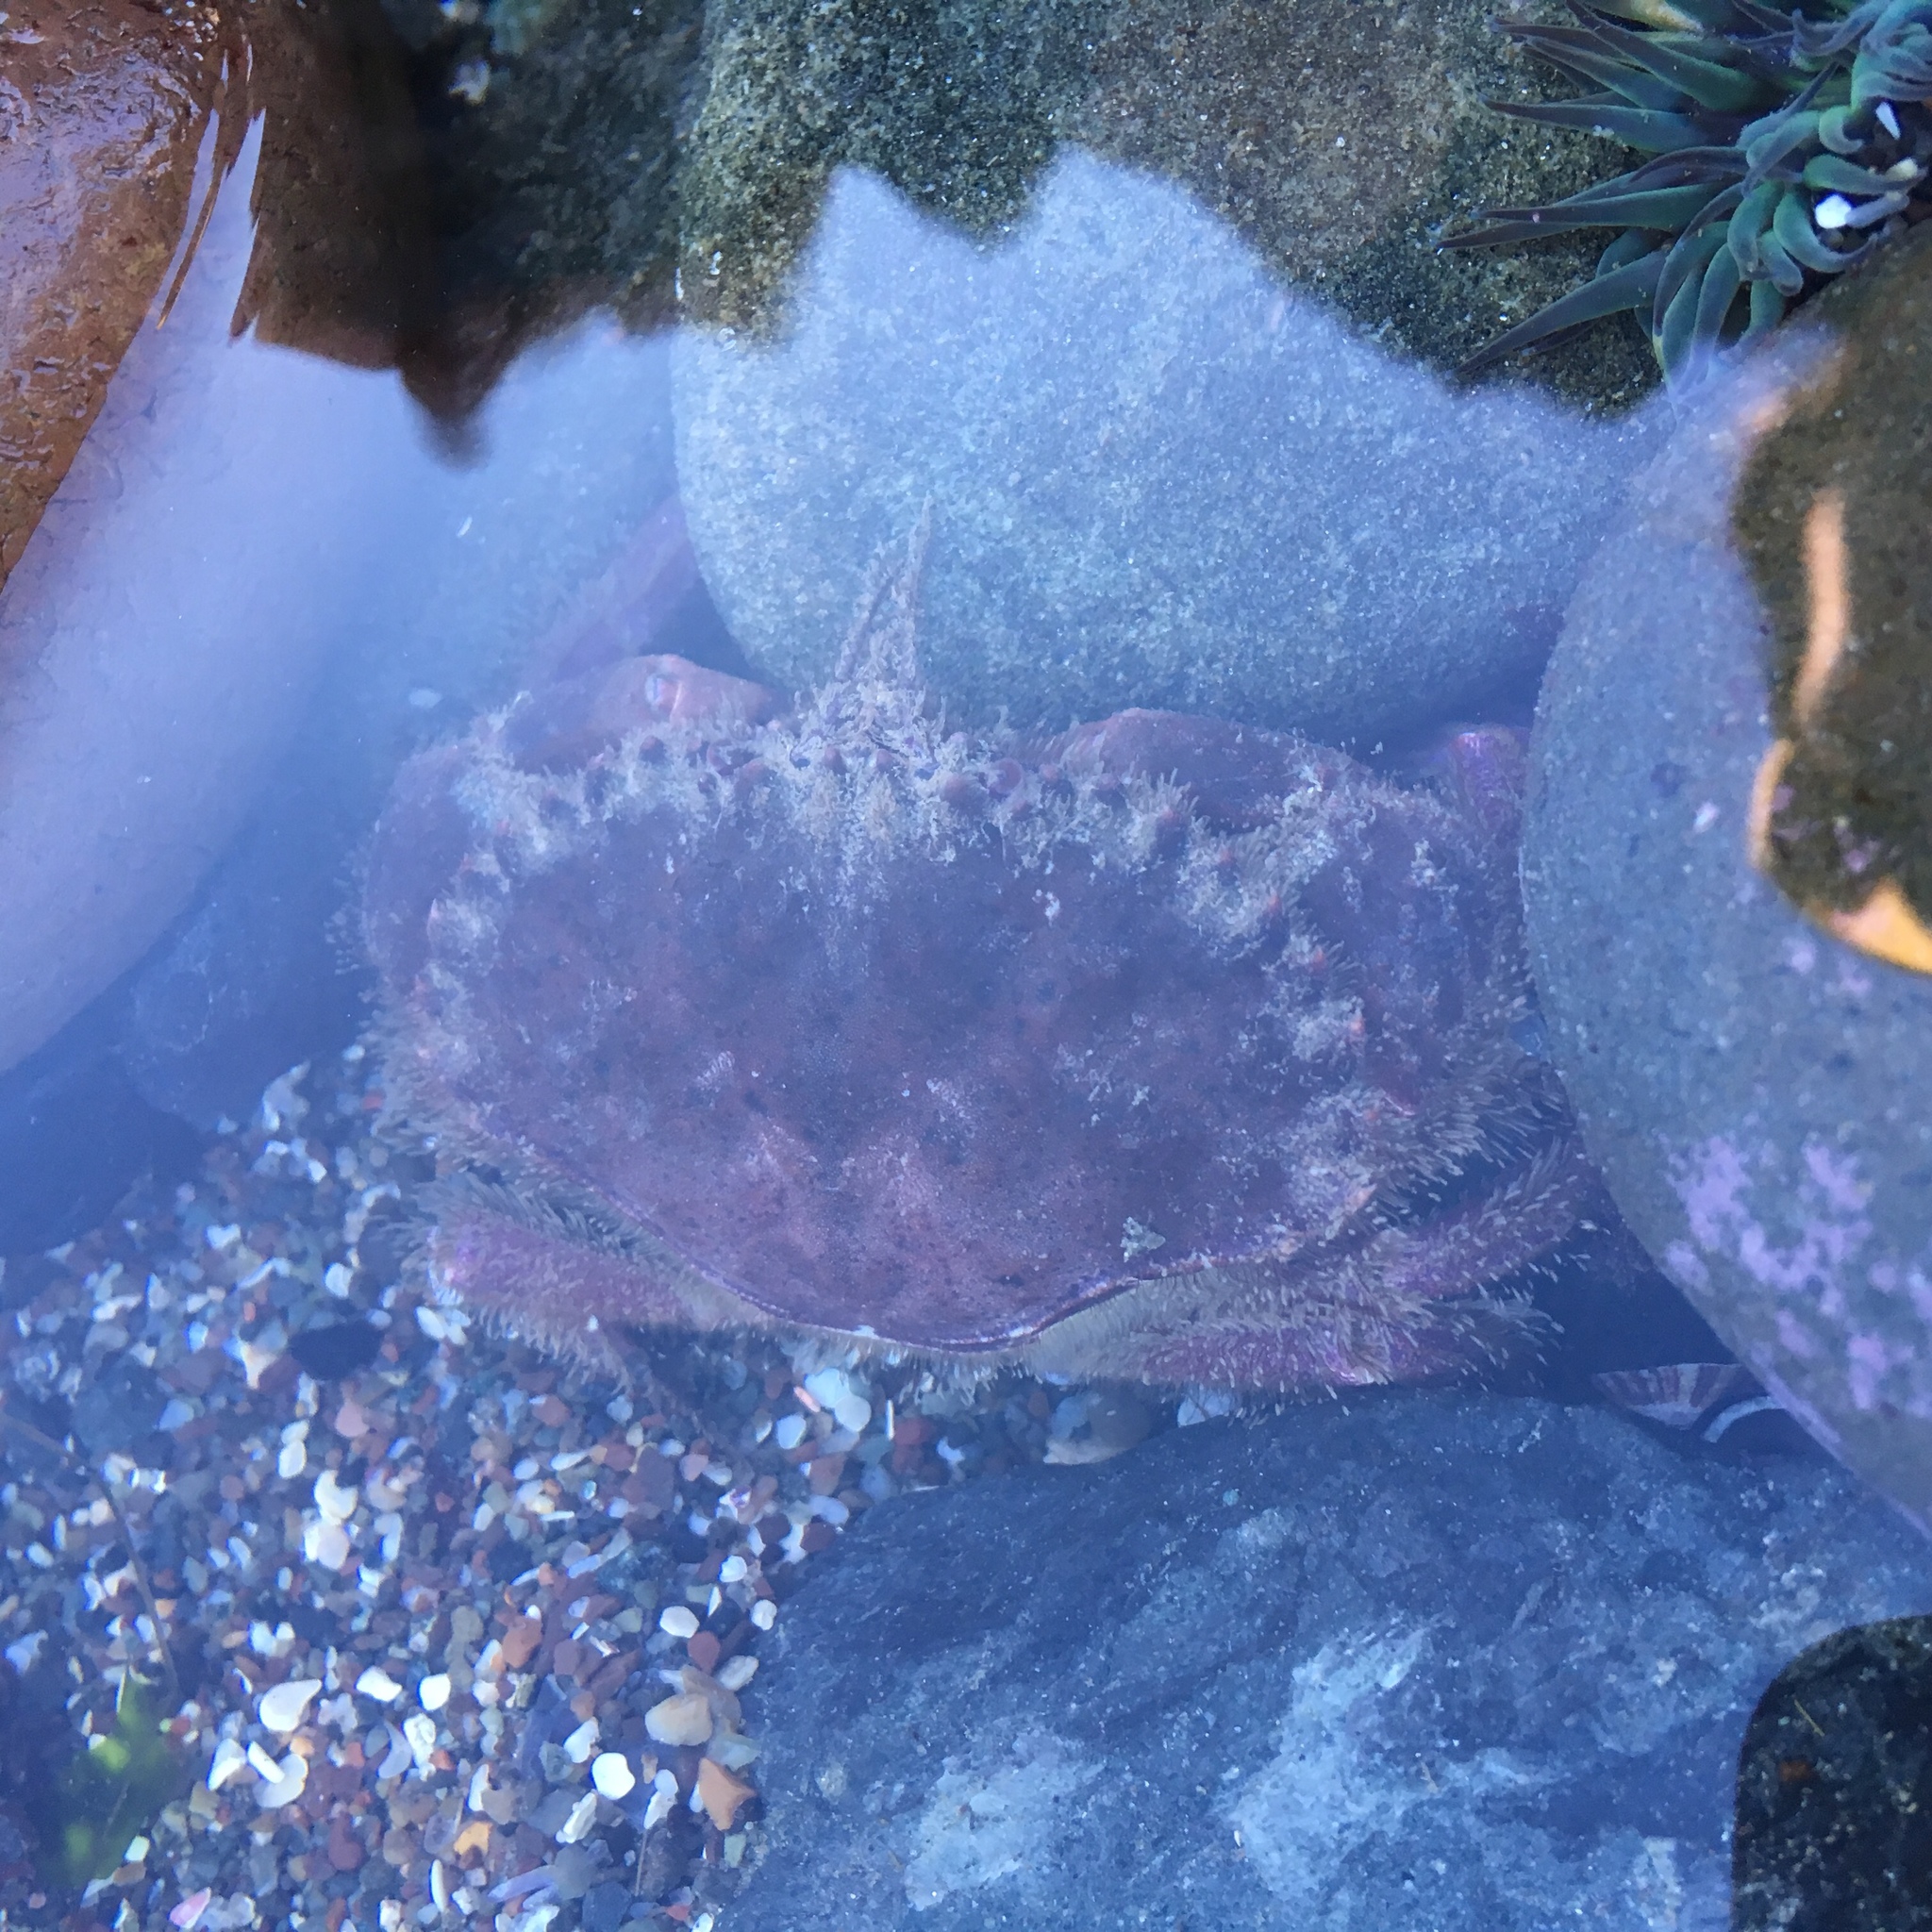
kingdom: Animalia
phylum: Arthropoda
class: Malacostraca
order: Decapoda
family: Cancridae
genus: Romaleon
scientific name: Romaleon antennarium
